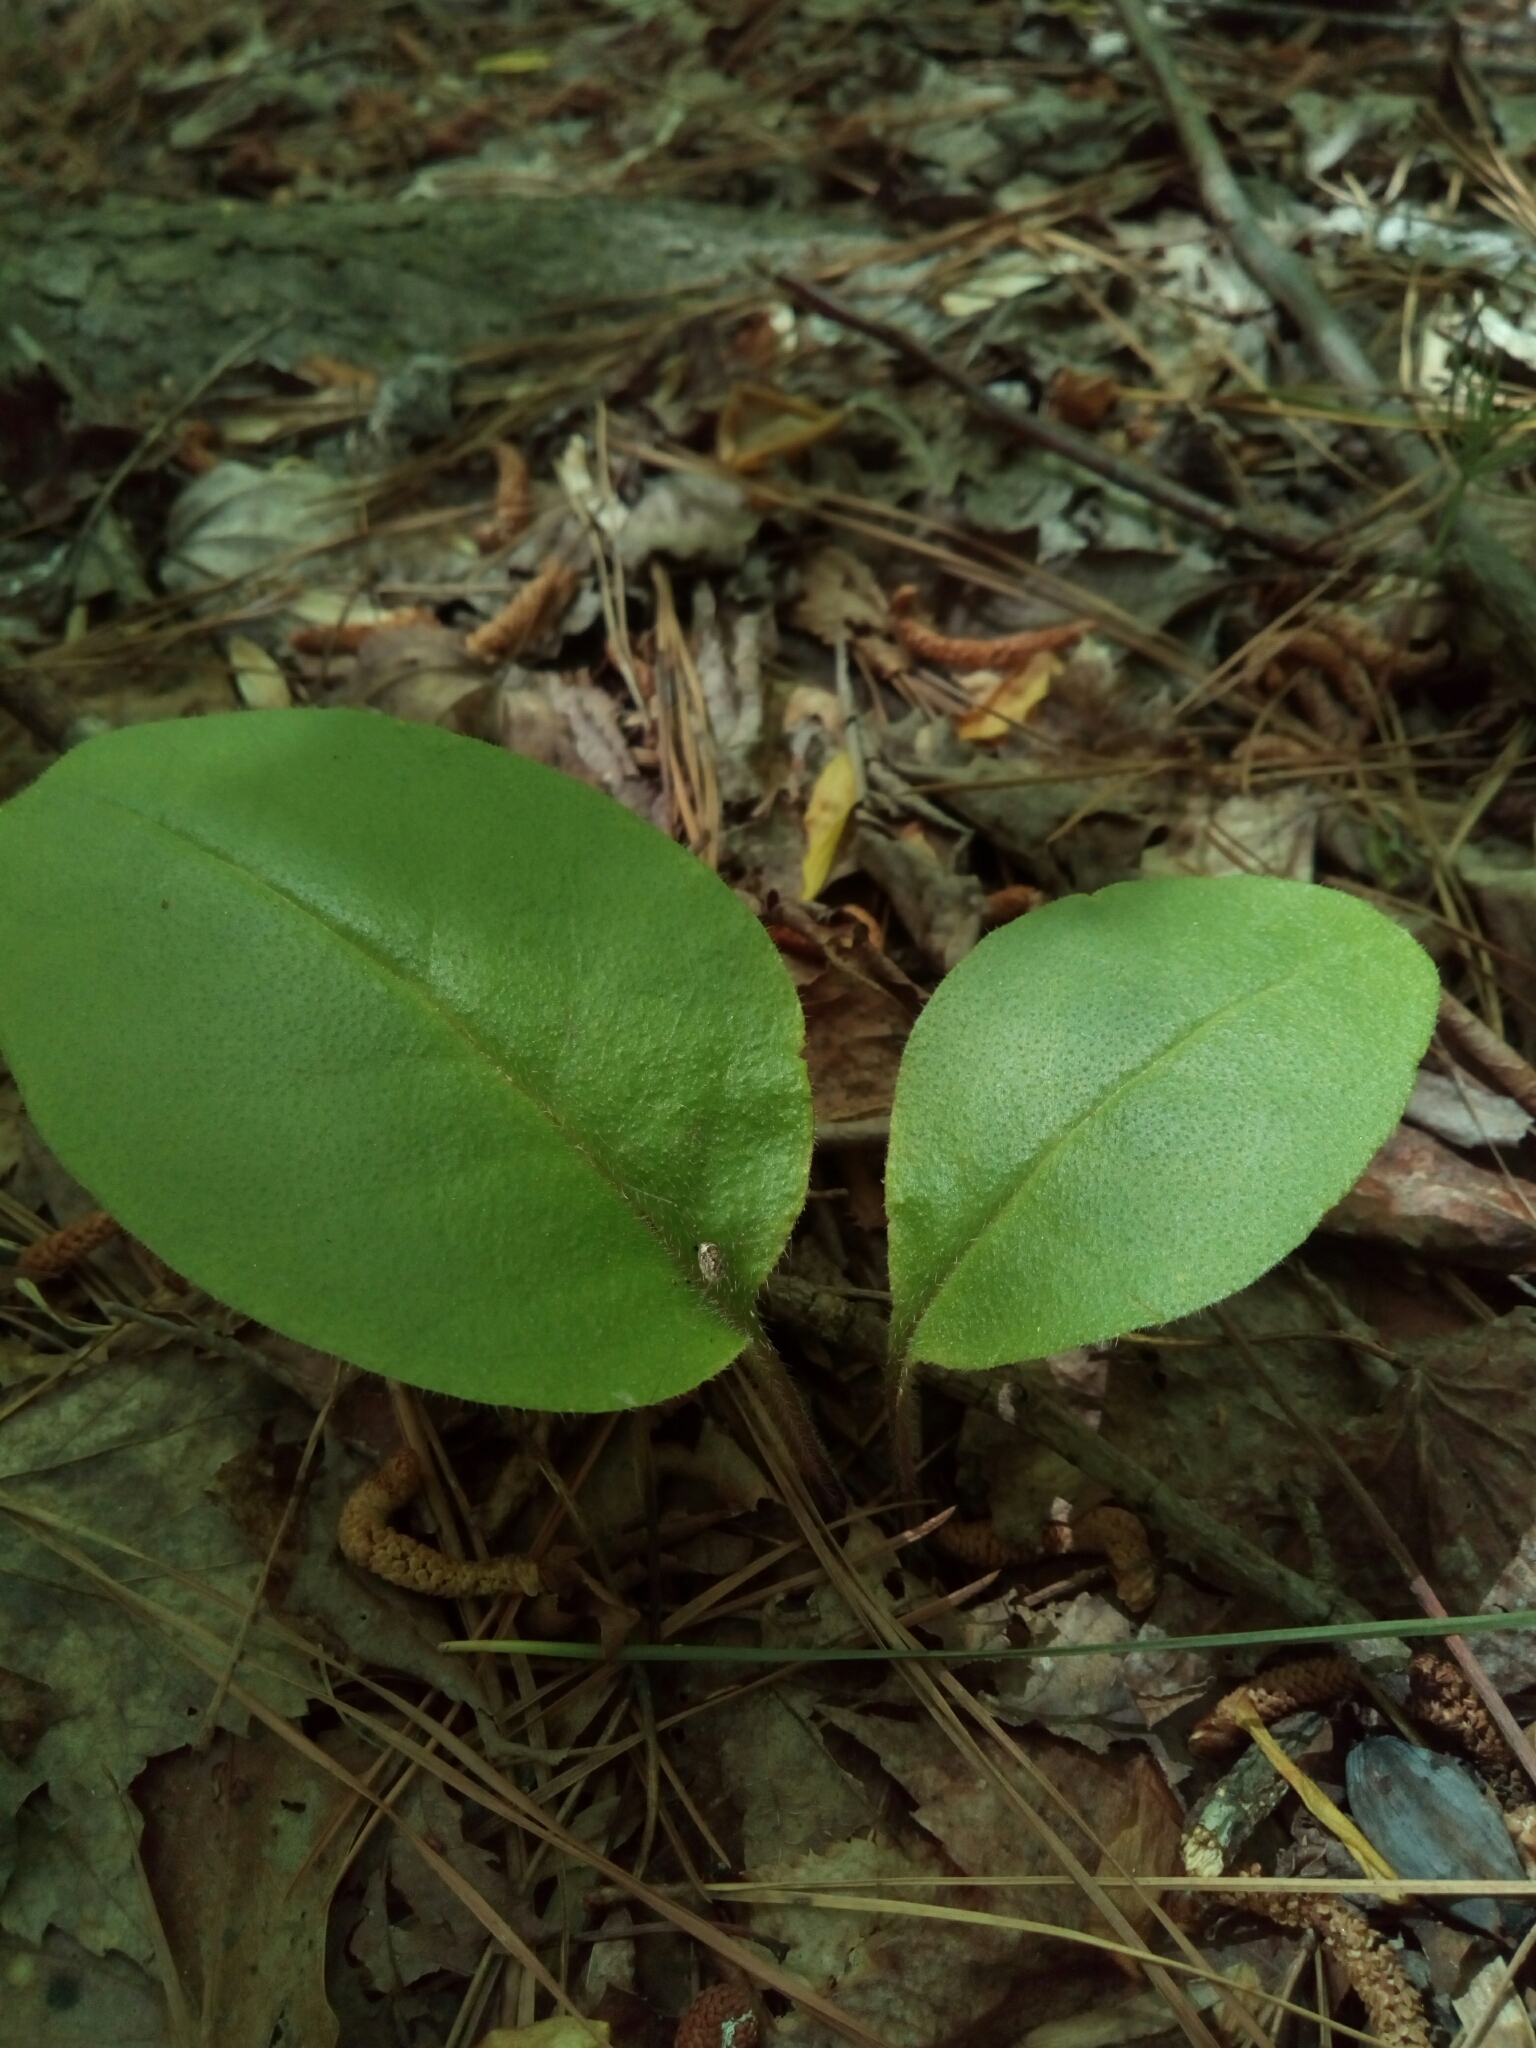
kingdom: Plantae
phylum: Tracheophyta
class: Magnoliopsida
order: Boraginales
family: Boraginaceae
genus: Andersonglossum
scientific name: Andersonglossum virginianum
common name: Wild comfrey
